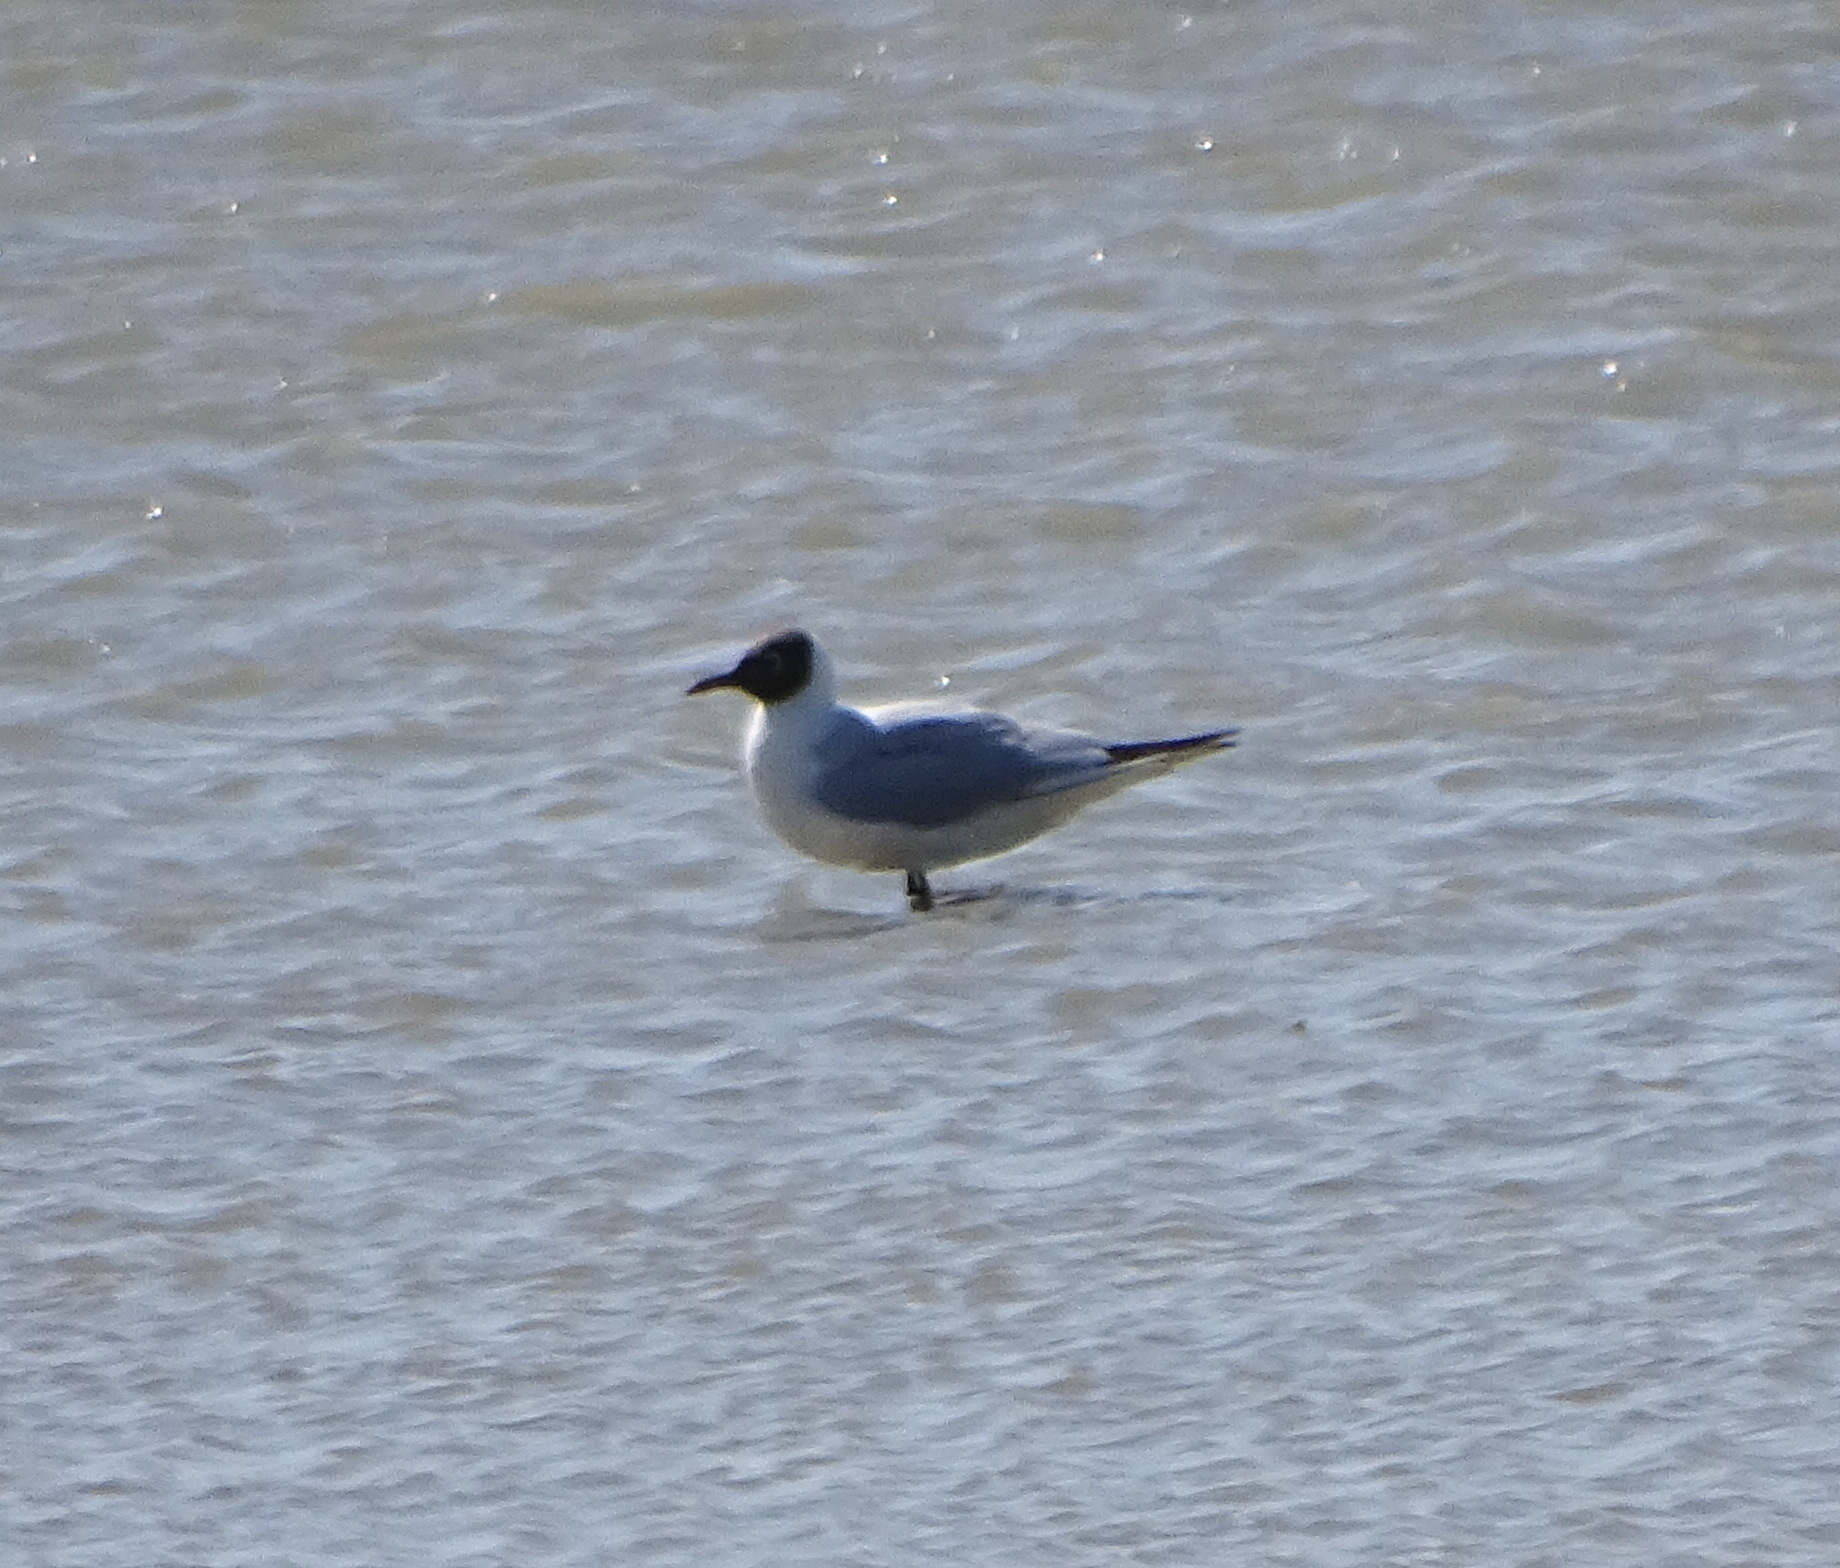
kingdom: Animalia
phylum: Chordata
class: Aves
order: Charadriiformes
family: Laridae
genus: Chroicocephalus
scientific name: Chroicocephalus ridibundus
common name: Black-headed gull
